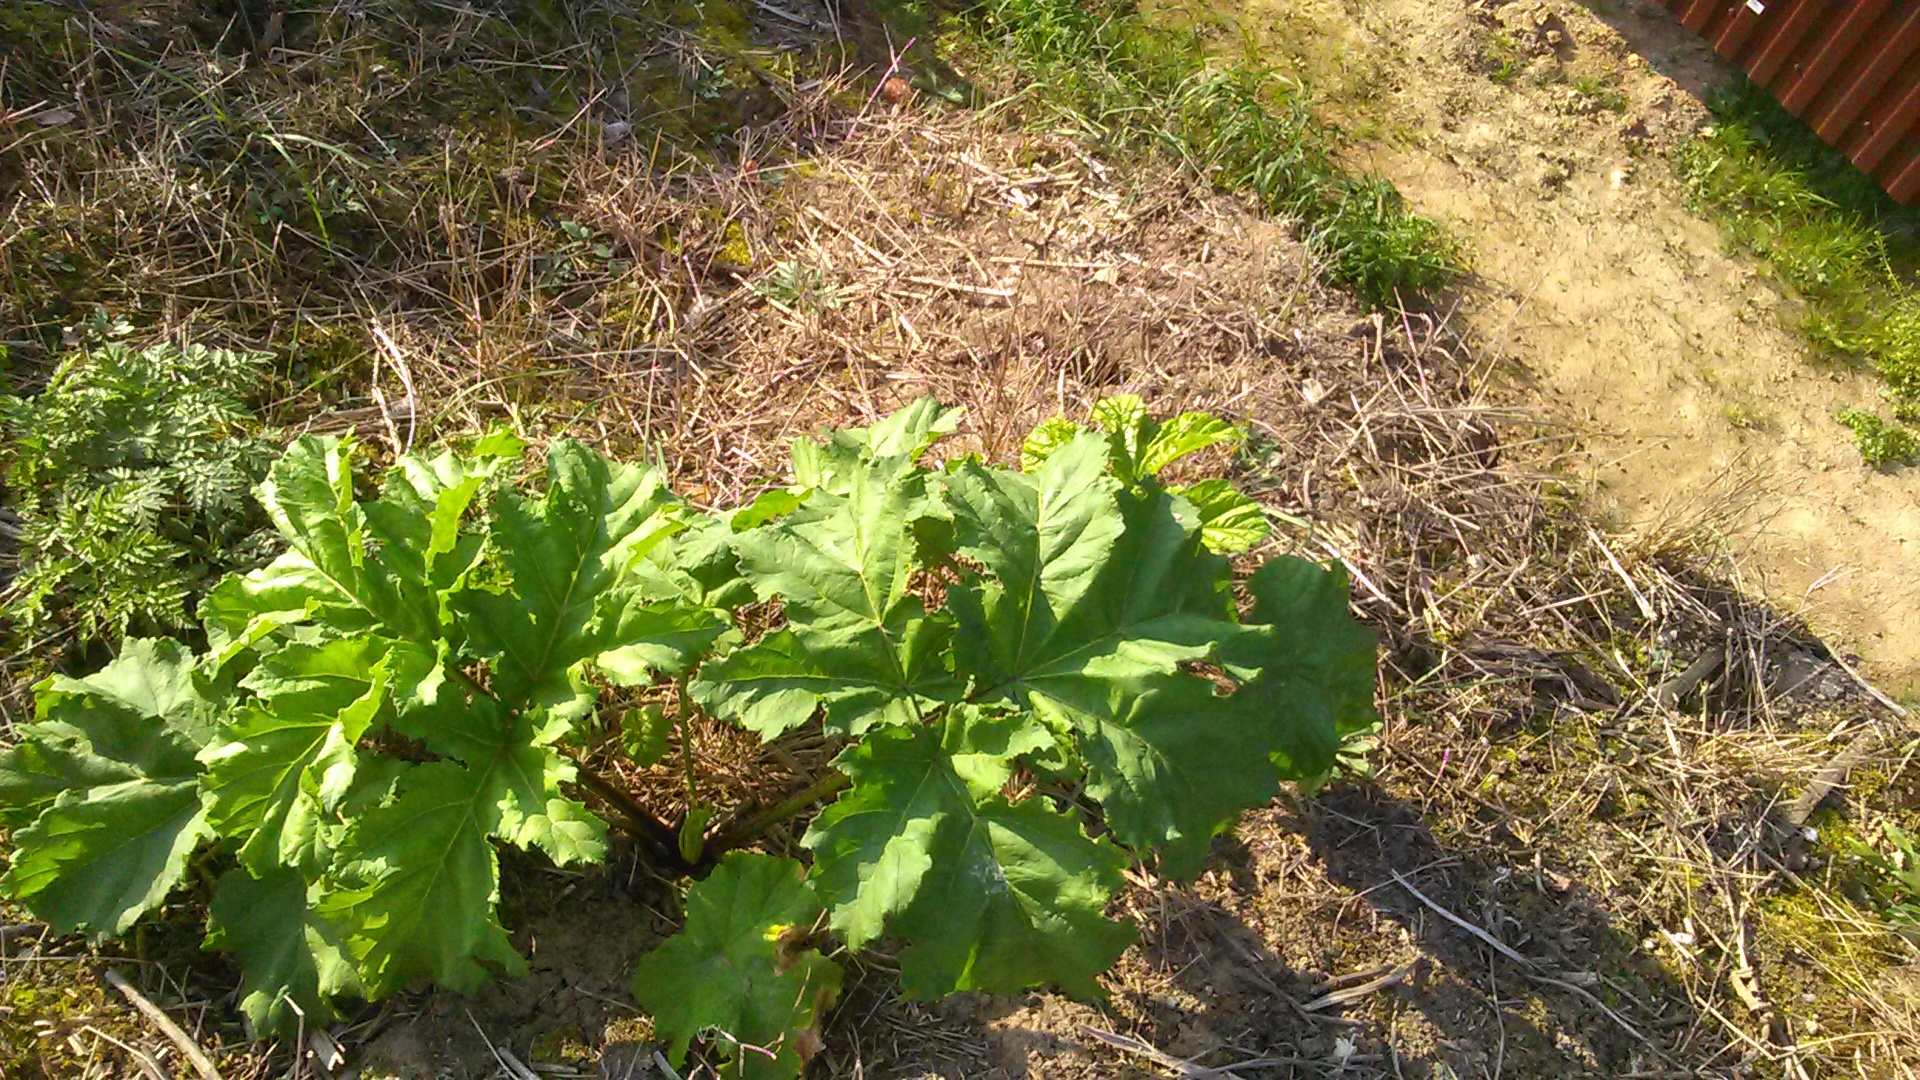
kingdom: Plantae
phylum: Tracheophyta
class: Magnoliopsida
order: Apiales
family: Apiaceae
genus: Heracleum
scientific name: Heracleum sosnowskyi
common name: Sosnowsky's hogweed
